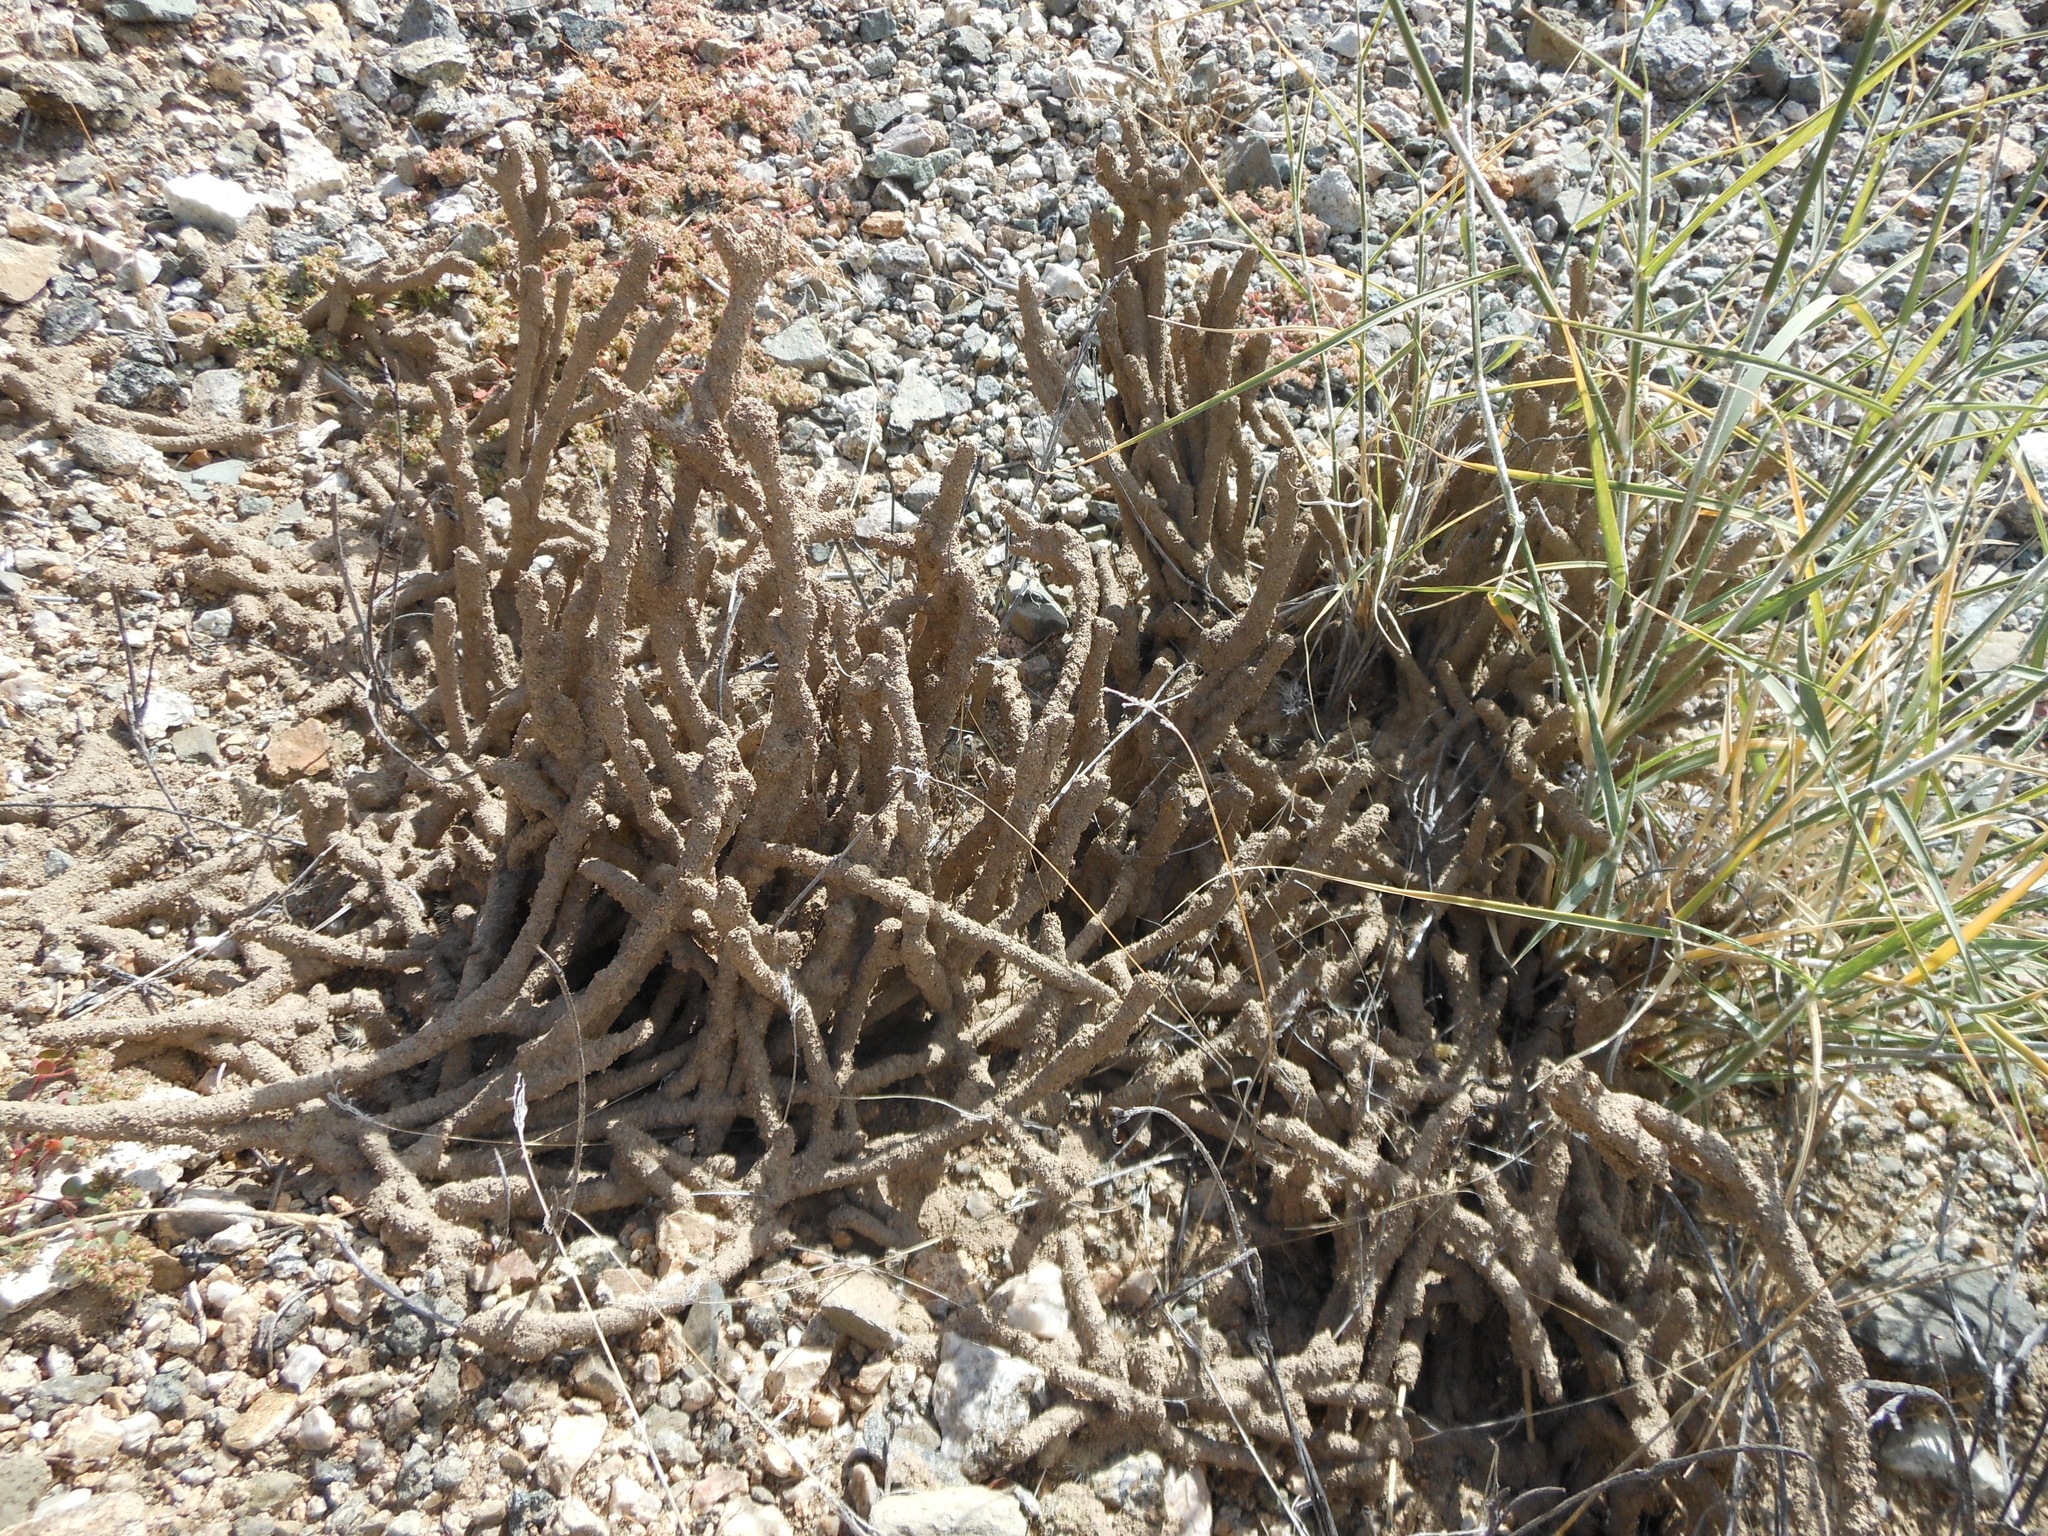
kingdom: Animalia
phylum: Arthropoda
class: Insecta
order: Blattodea
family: Termitidae
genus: Gnathamitermes
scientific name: Gnathamitermes
